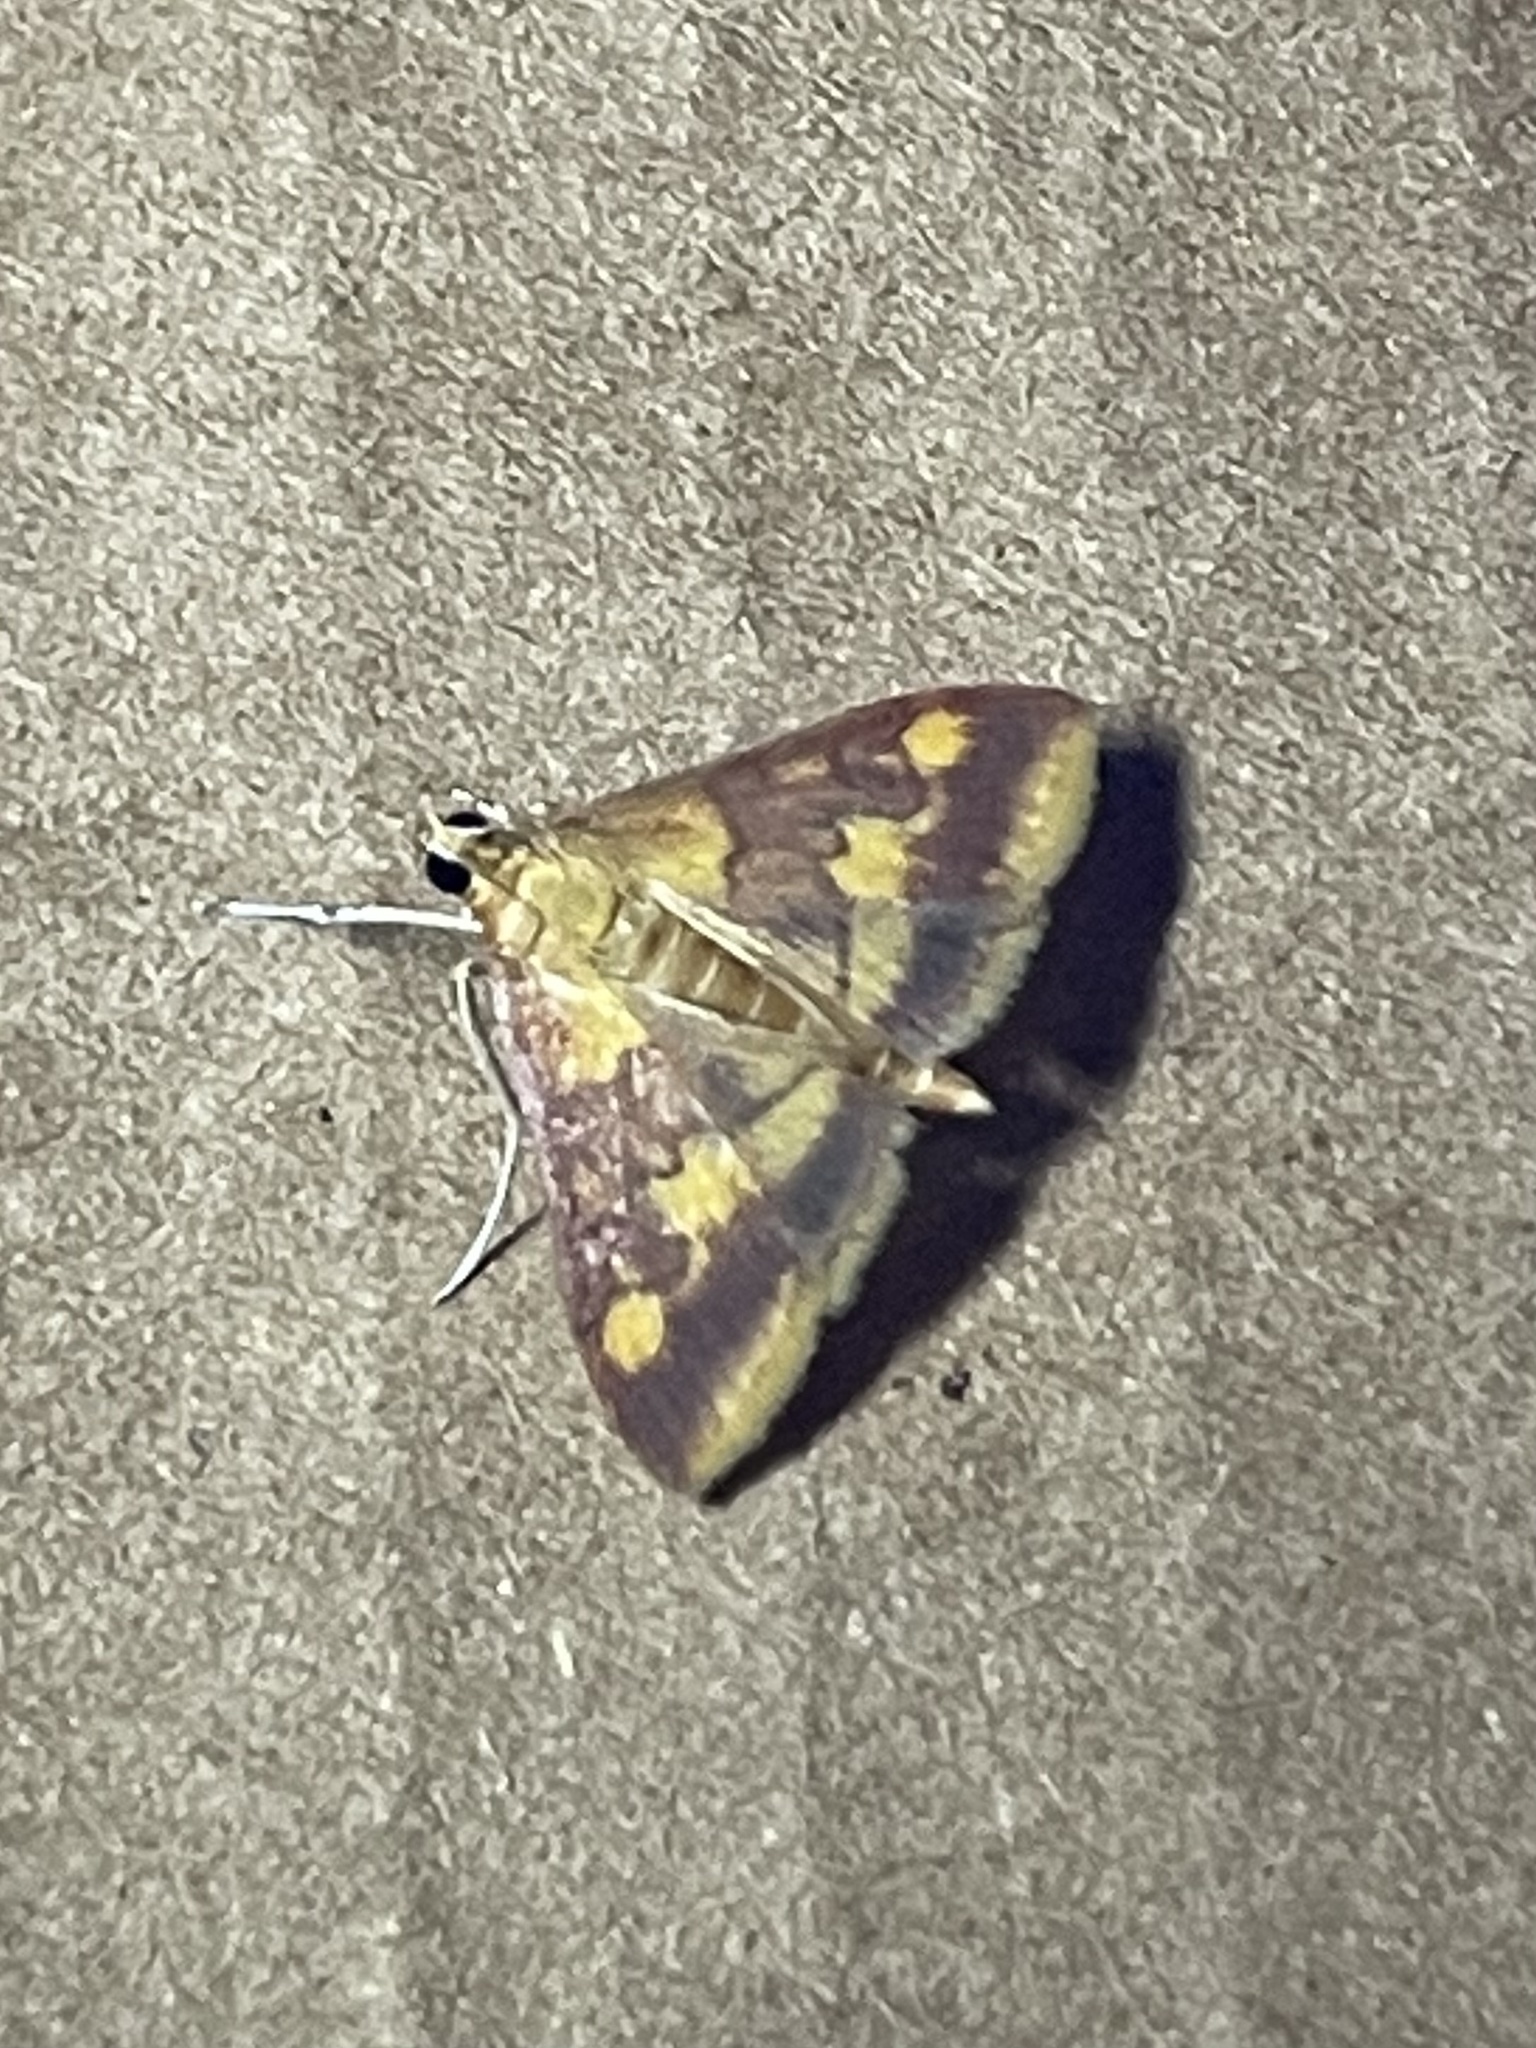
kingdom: Animalia
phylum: Arthropoda
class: Insecta
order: Lepidoptera
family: Crambidae
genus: Pyrausta
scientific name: Pyrausta acrionalis
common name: Mint-loving pyrausta moth
